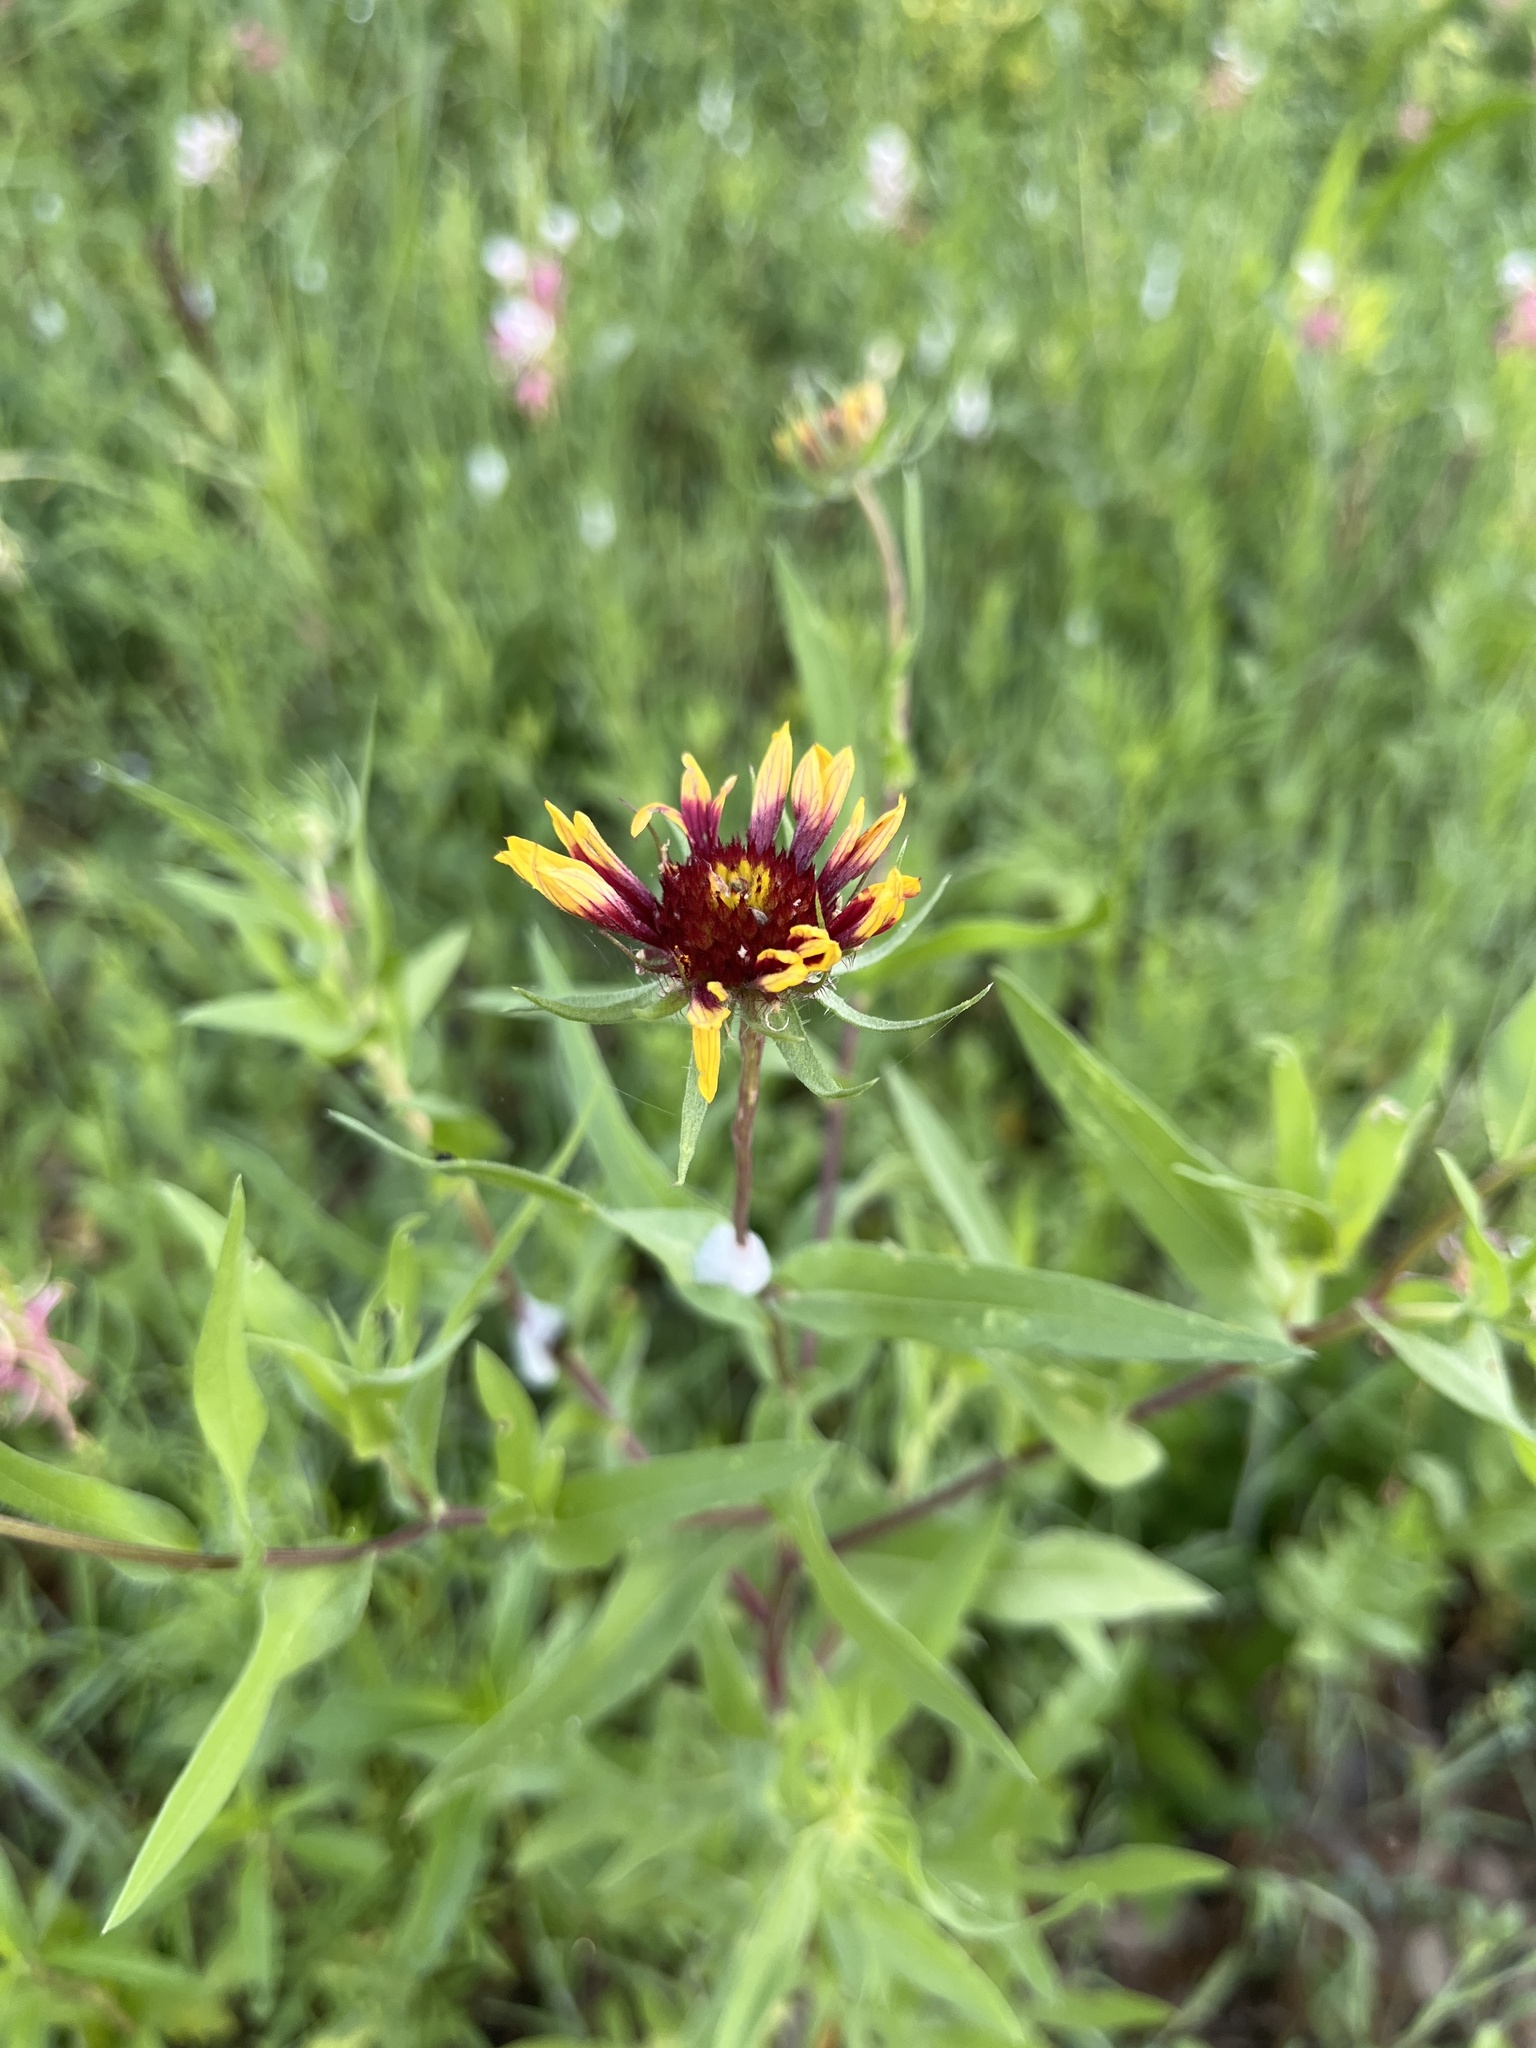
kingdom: Plantae
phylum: Tracheophyta
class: Magnoliopsida
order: Asterales
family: Asteraceae
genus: Gaillardia
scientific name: Gaillardia pulchella
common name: Firewheel
